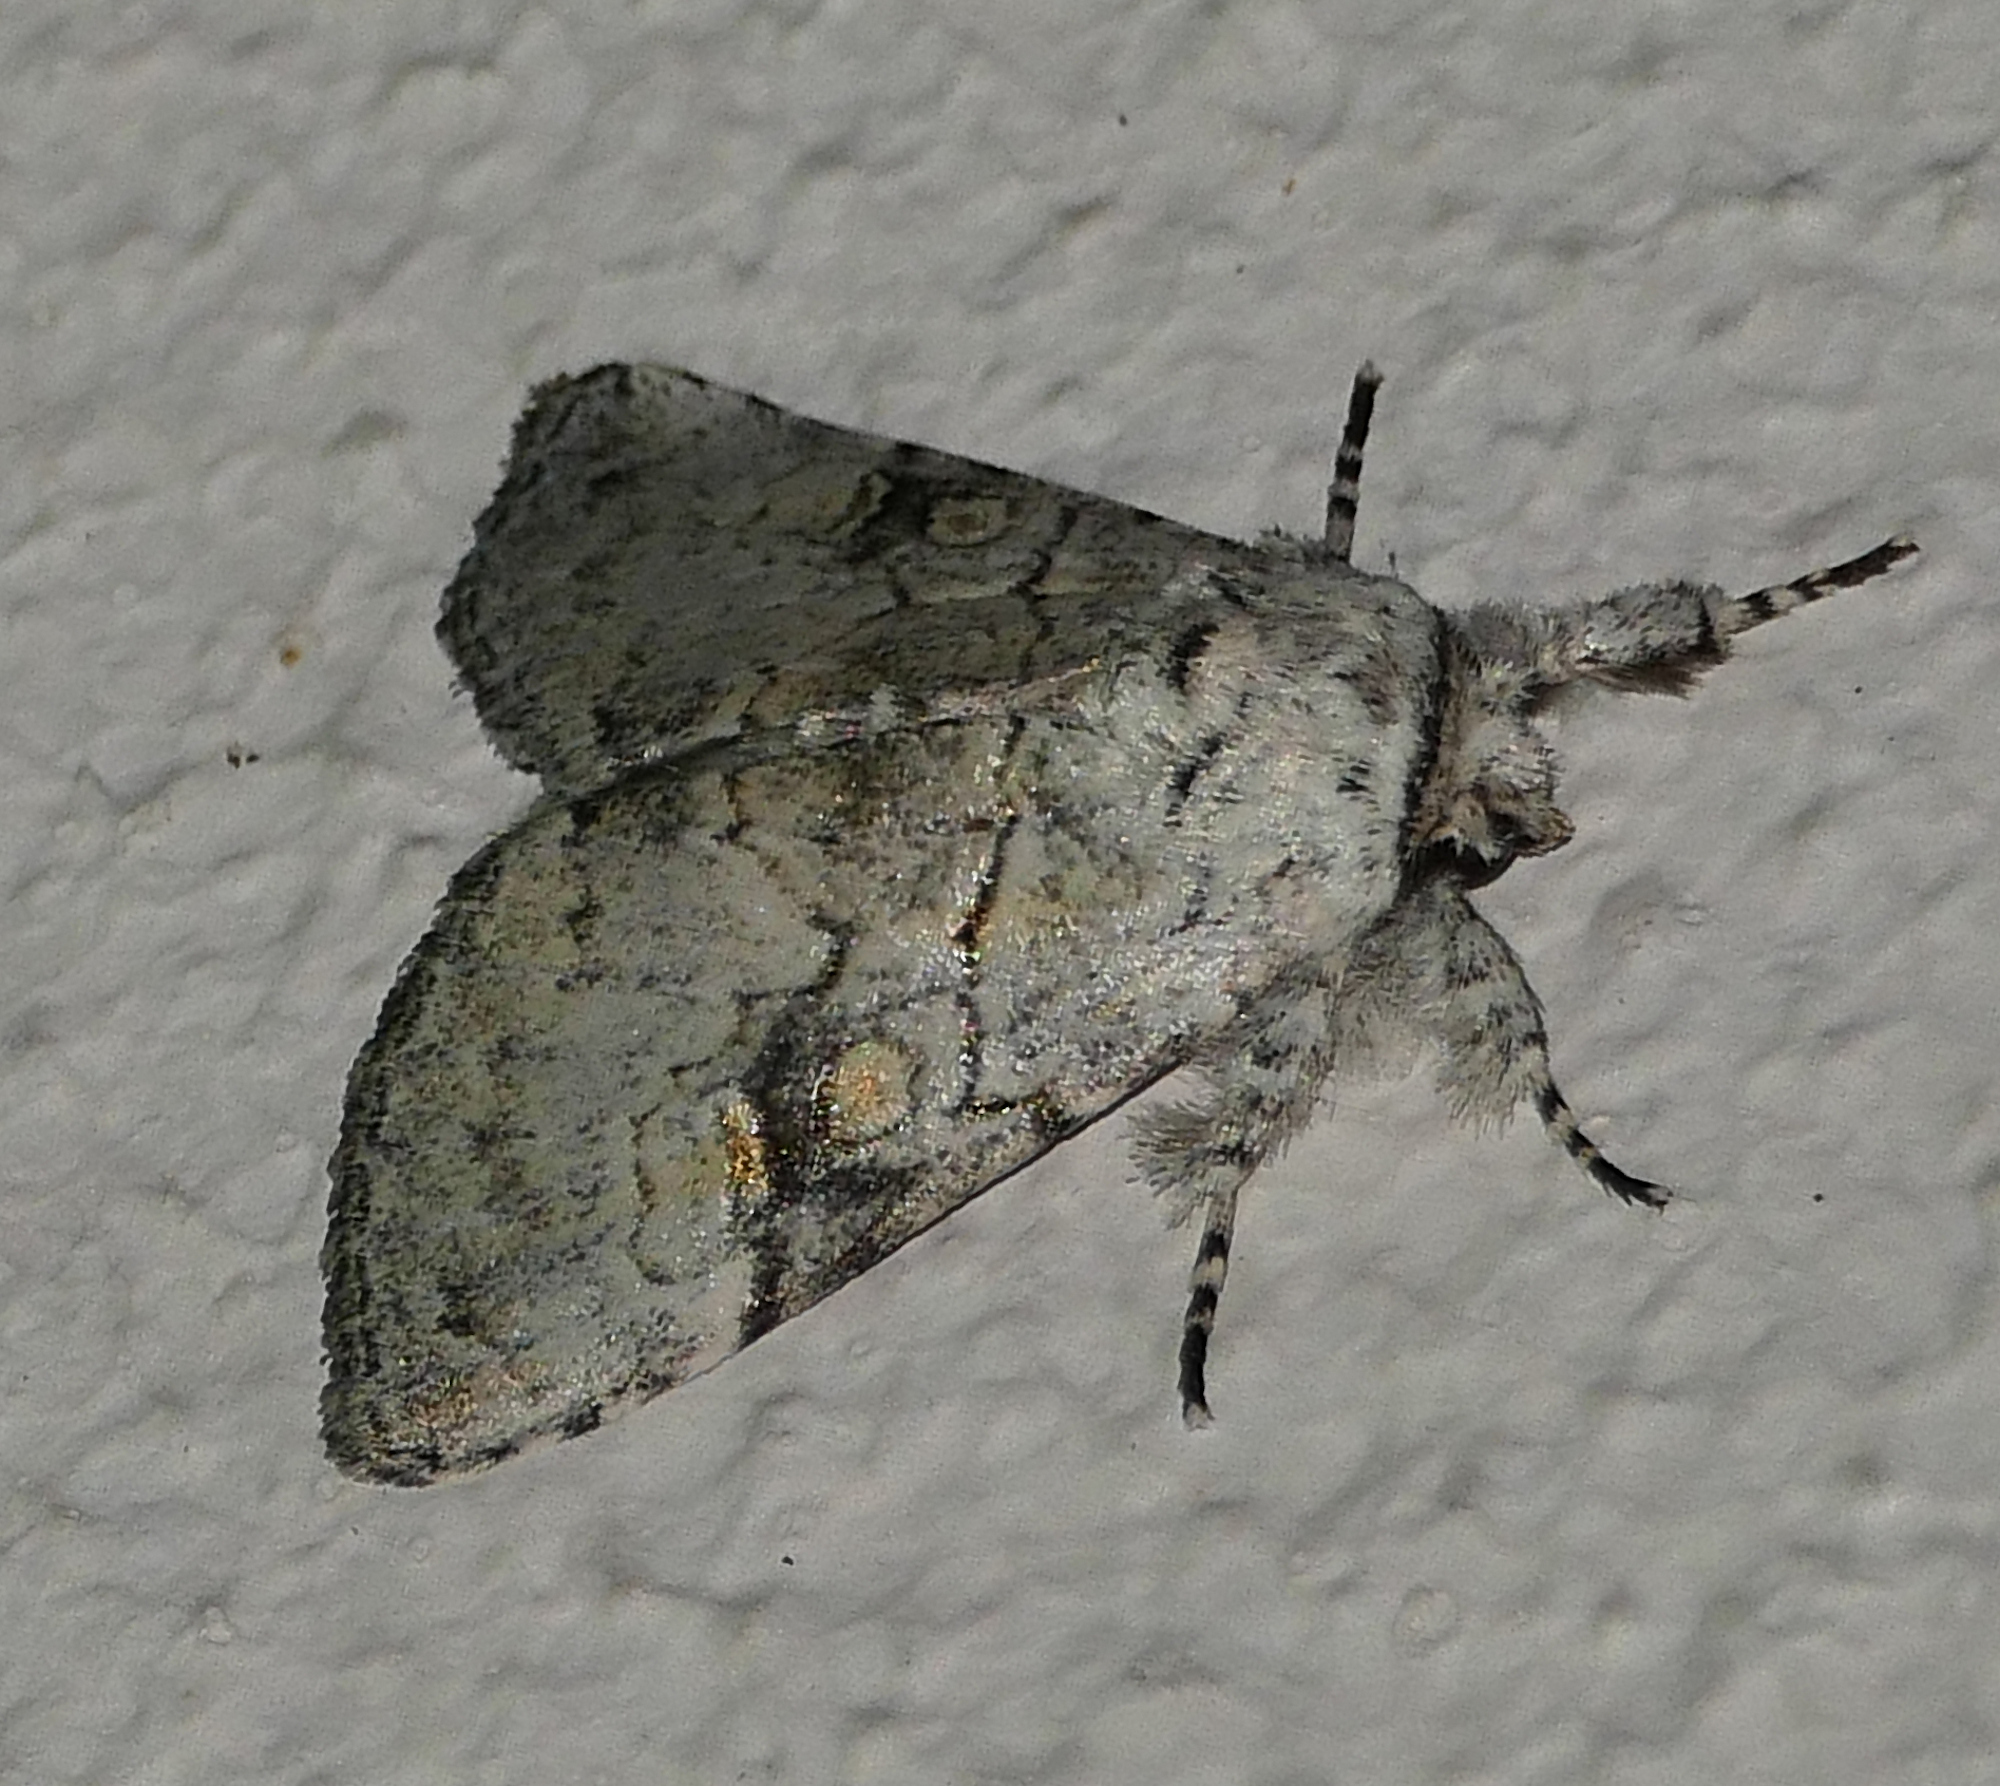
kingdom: Animalia
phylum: Arthropoda
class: Insecta
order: Lepidoptera
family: Noctuidae
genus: Charadra
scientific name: Charadra dispulsa
